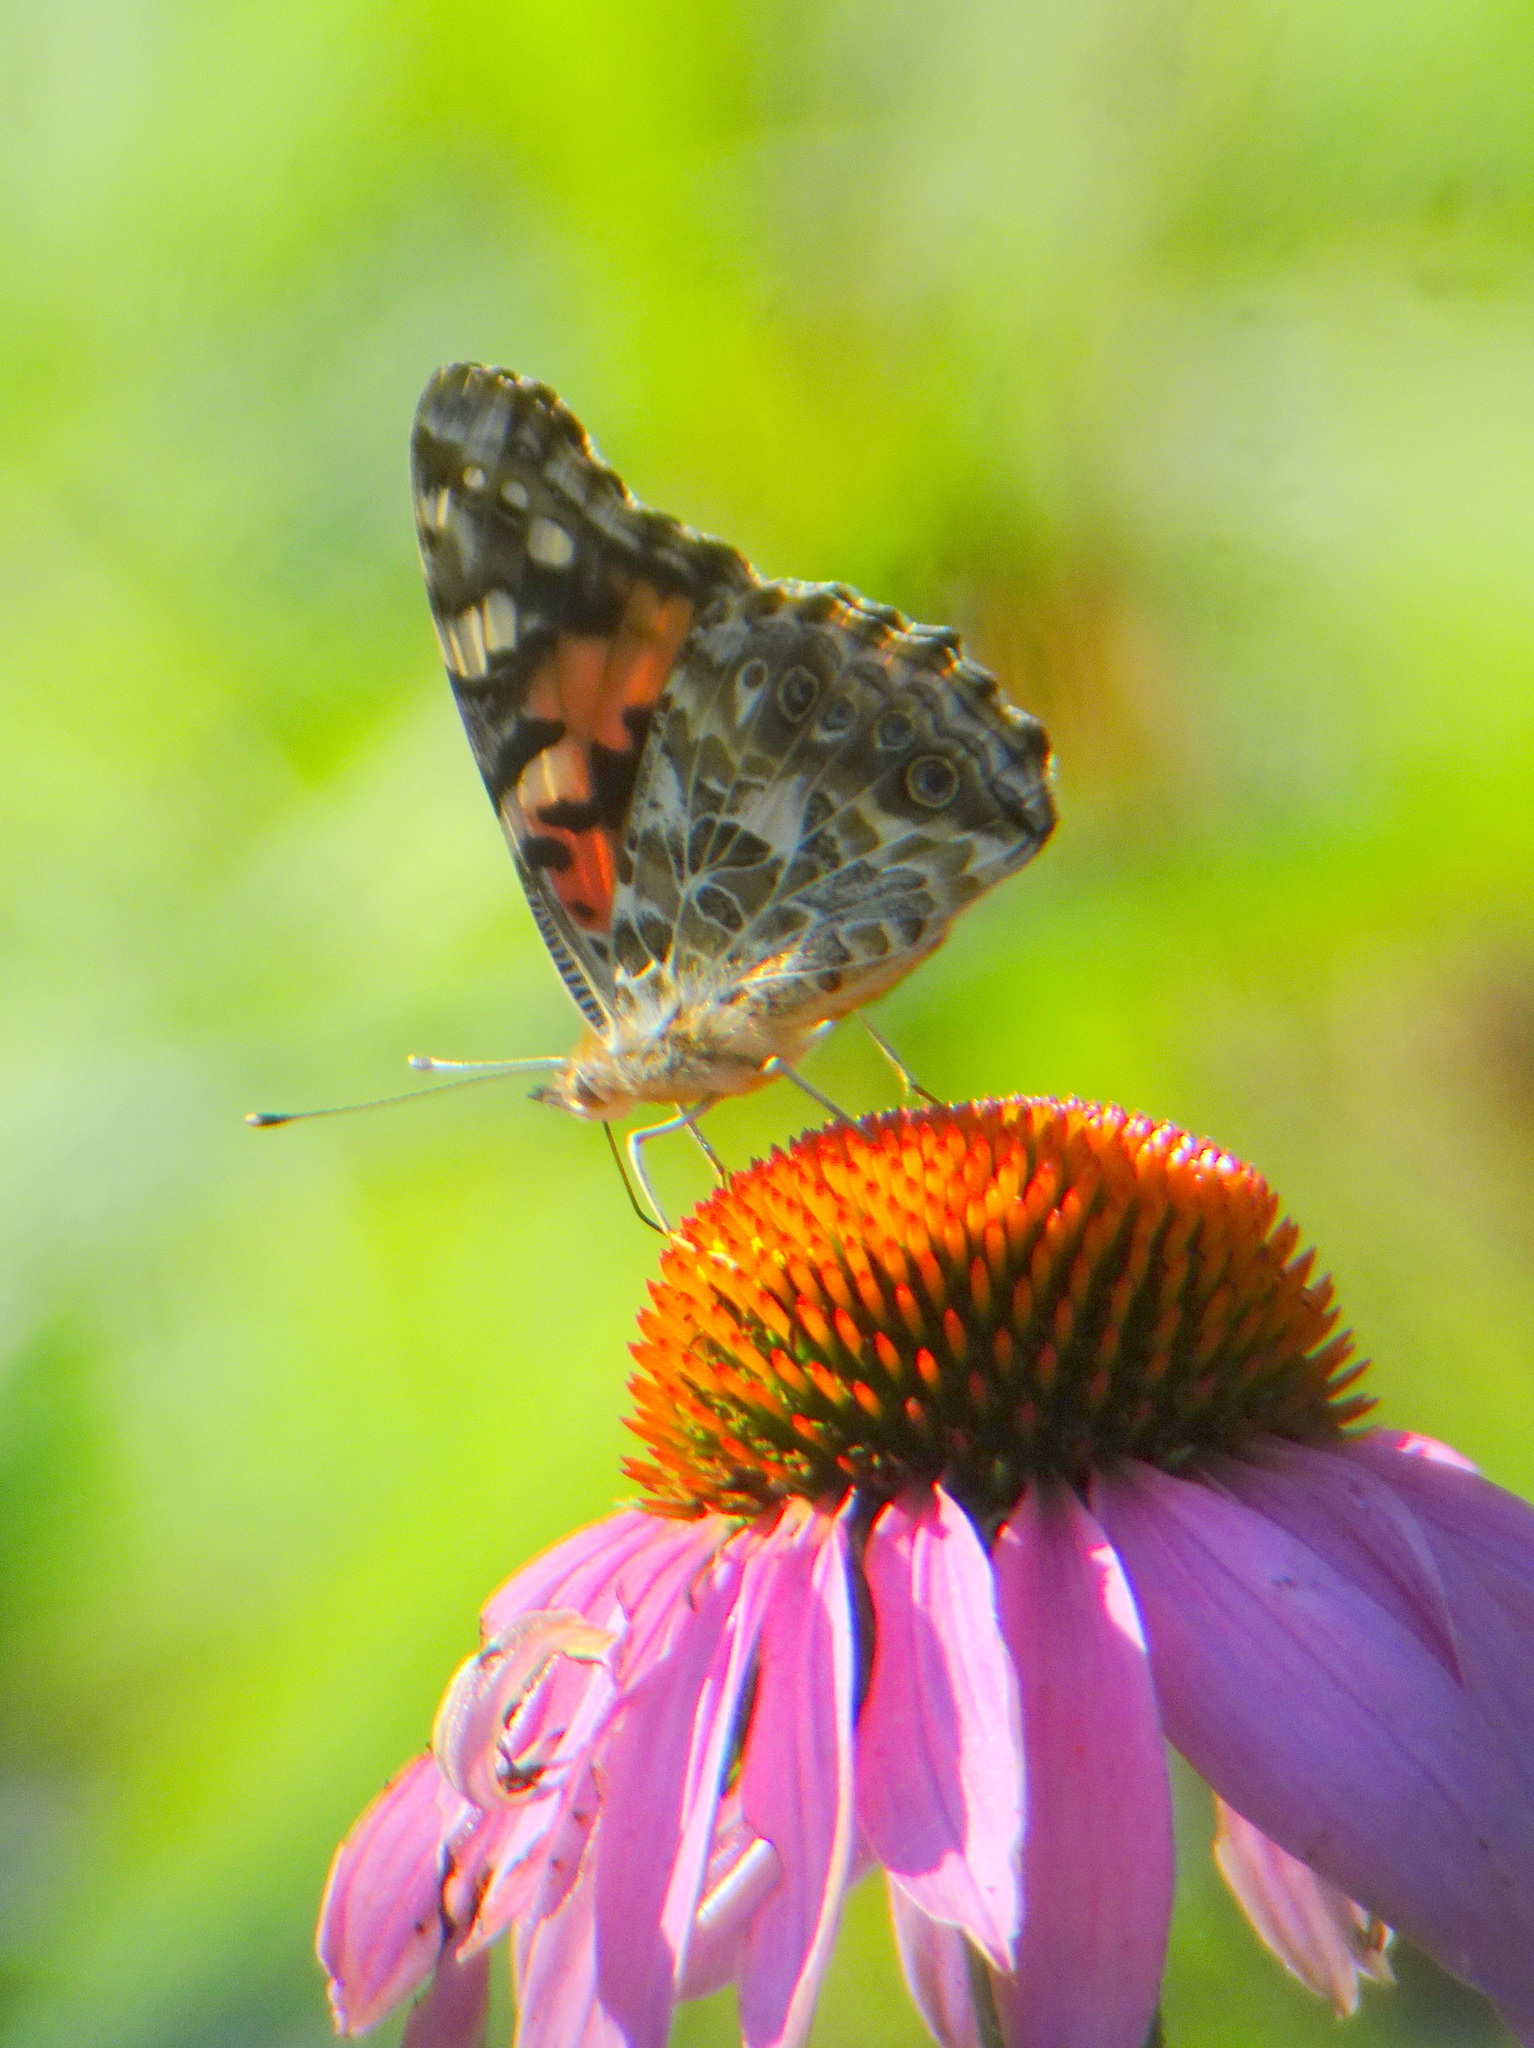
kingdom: Animalia
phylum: Arthropoda
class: Insecta
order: Lepidoptera
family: Nymphalidae
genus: Vanessa
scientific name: Vanessa cardui
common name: Painted lady
